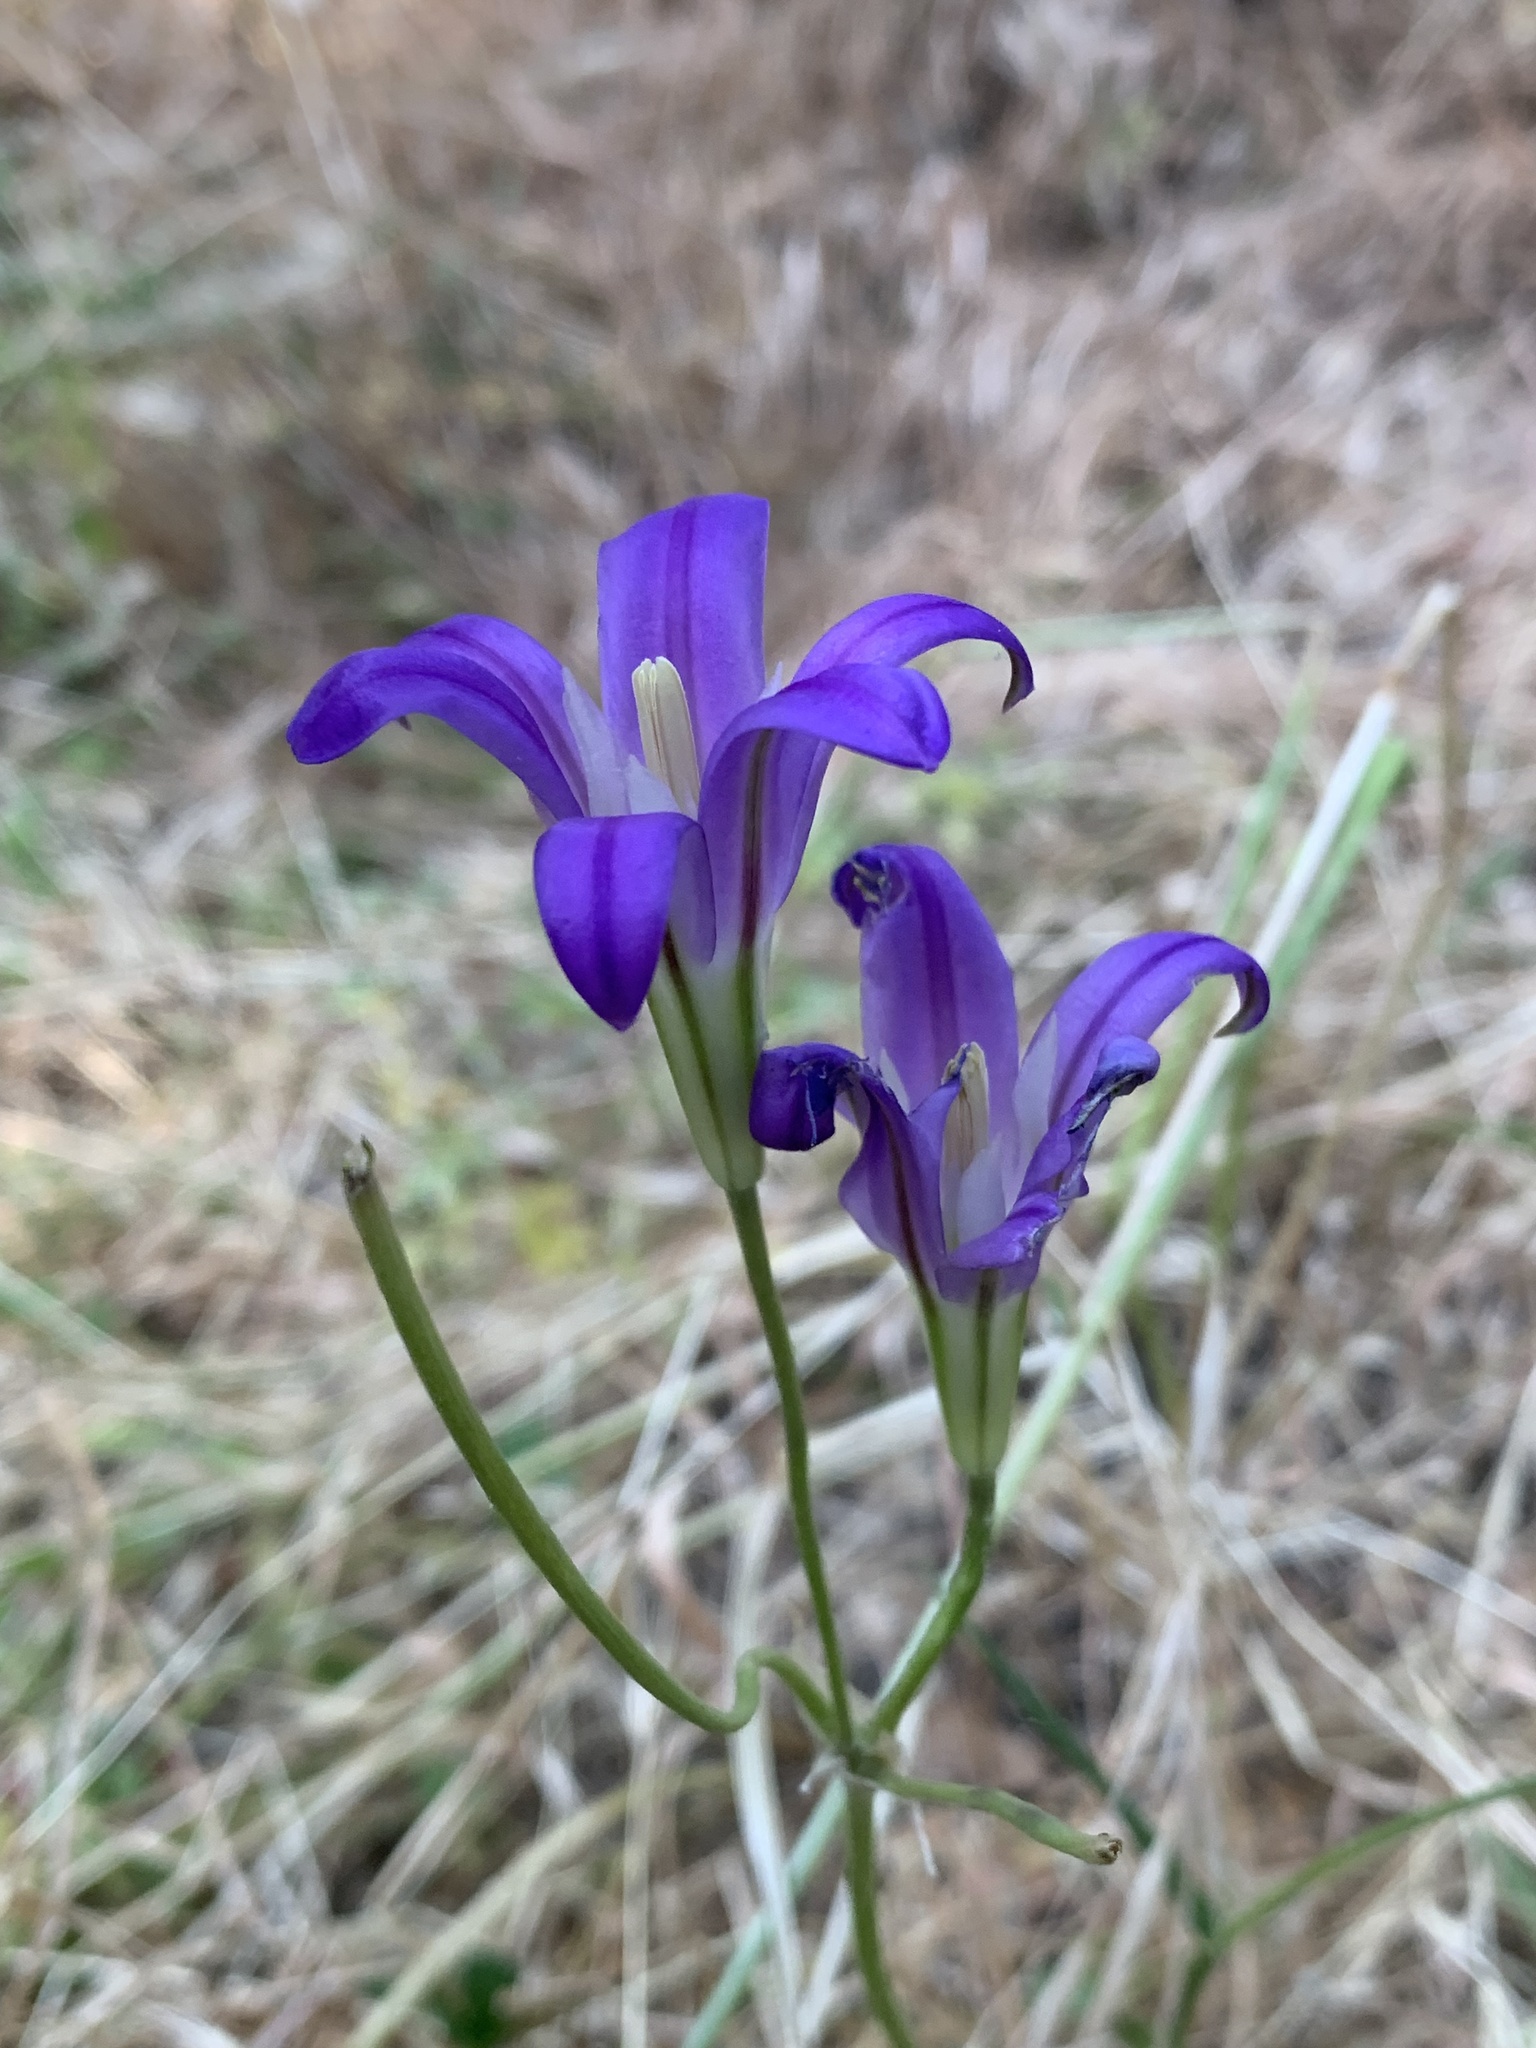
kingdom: Plantae
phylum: Tracheophyta
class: Liliopsida
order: Asparagales
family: Asparagaceae
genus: Brodiaea
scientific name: Brodiaea elegans
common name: Elegant cluster-lily
